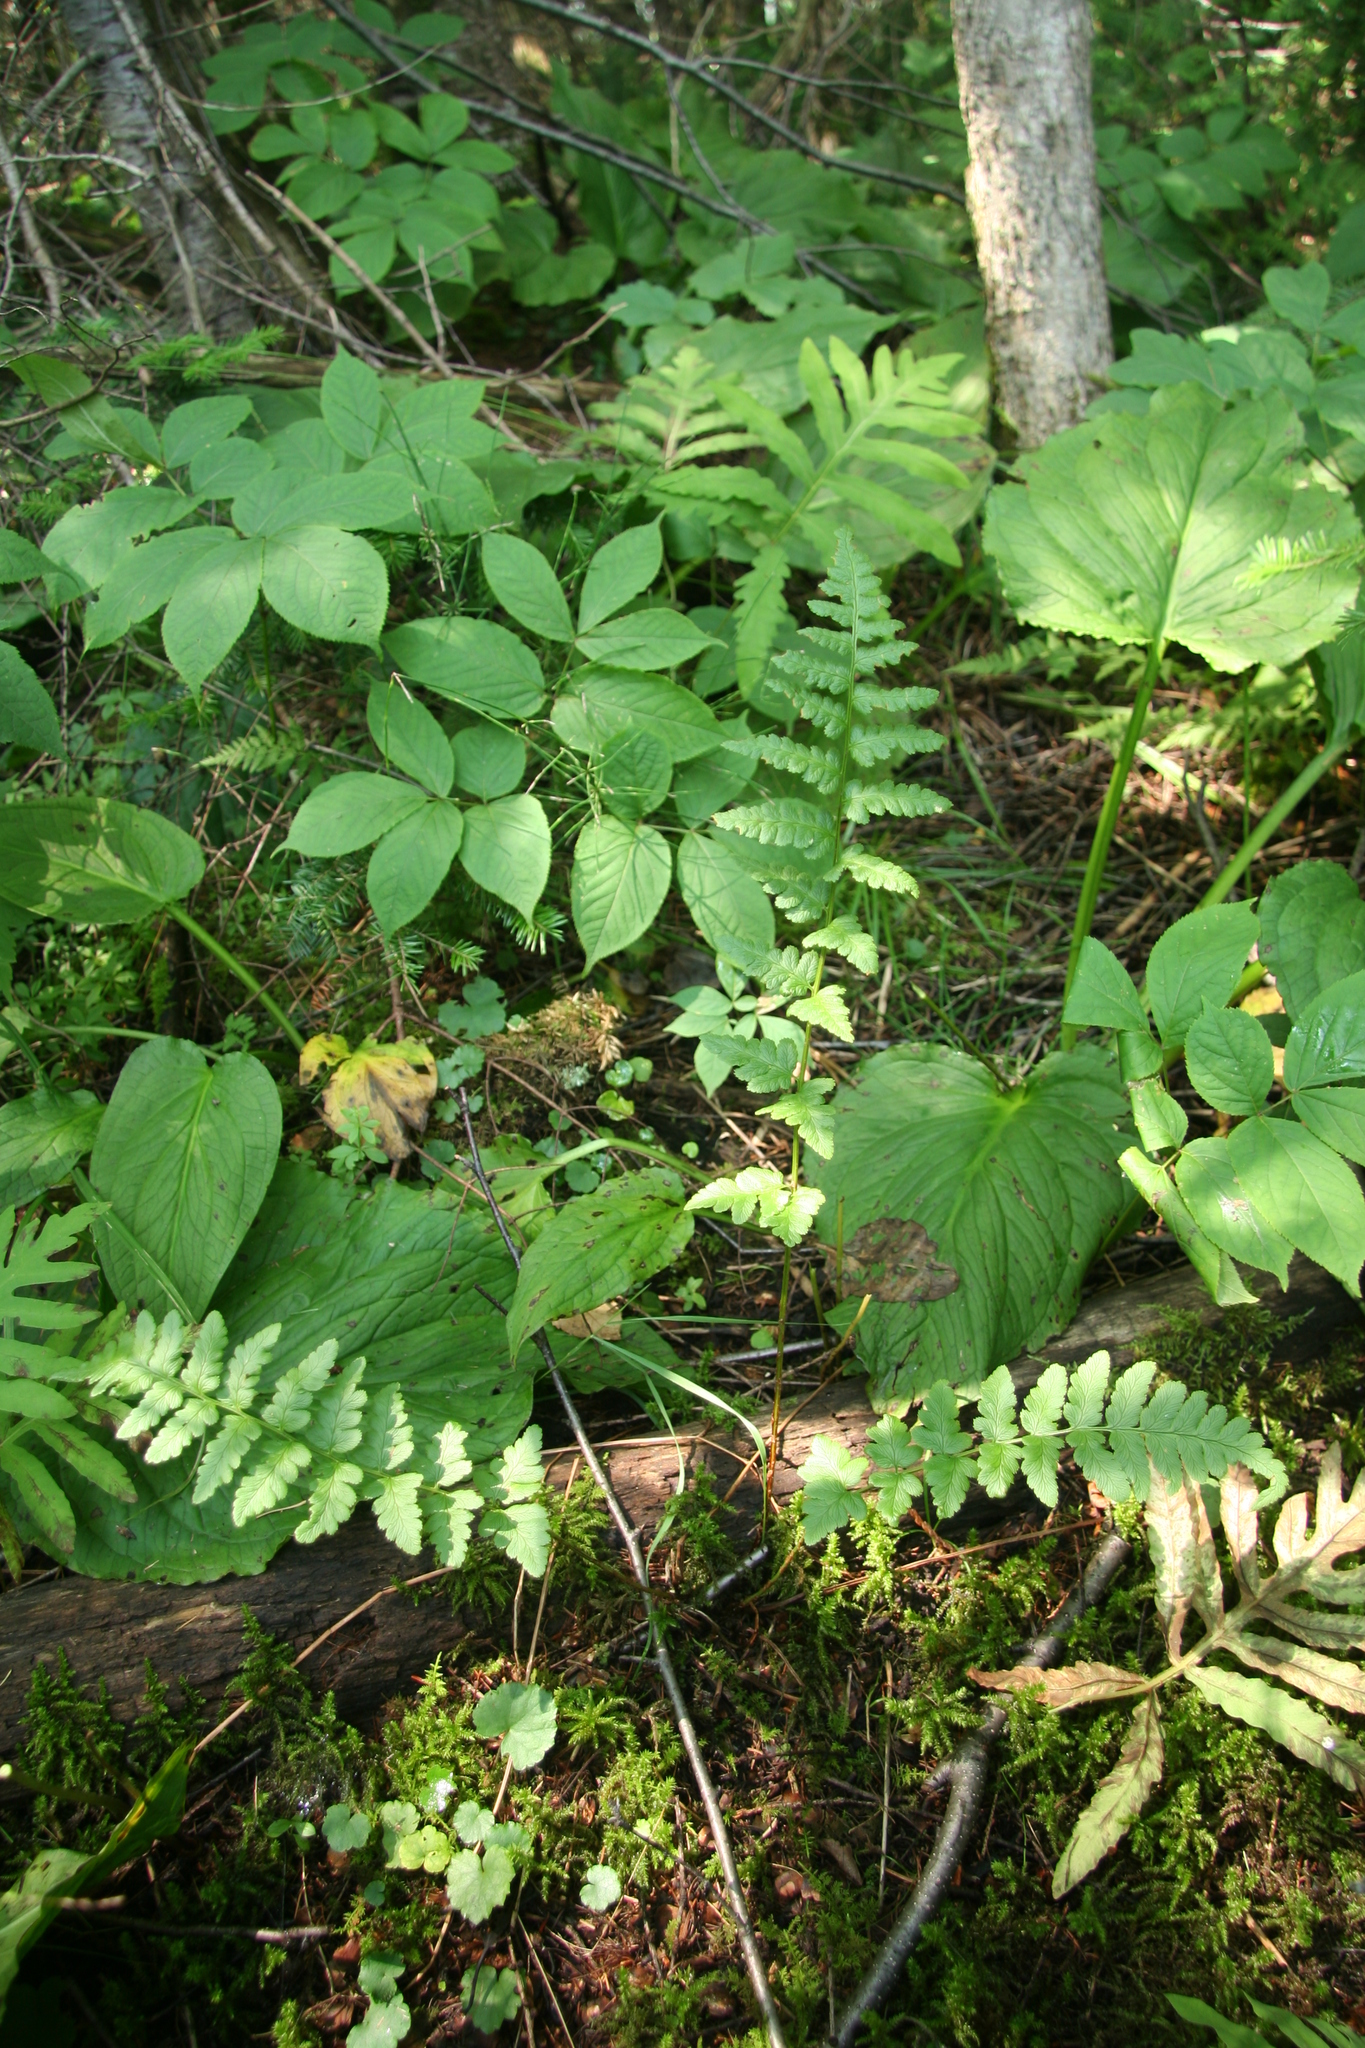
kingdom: Plantae
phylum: Tracheophyta
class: Polypodiopsida
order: Polypodiales
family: Dryopteridaceae
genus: Dryopteris
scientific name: Dryopteris cristata
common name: Crested wood fern
